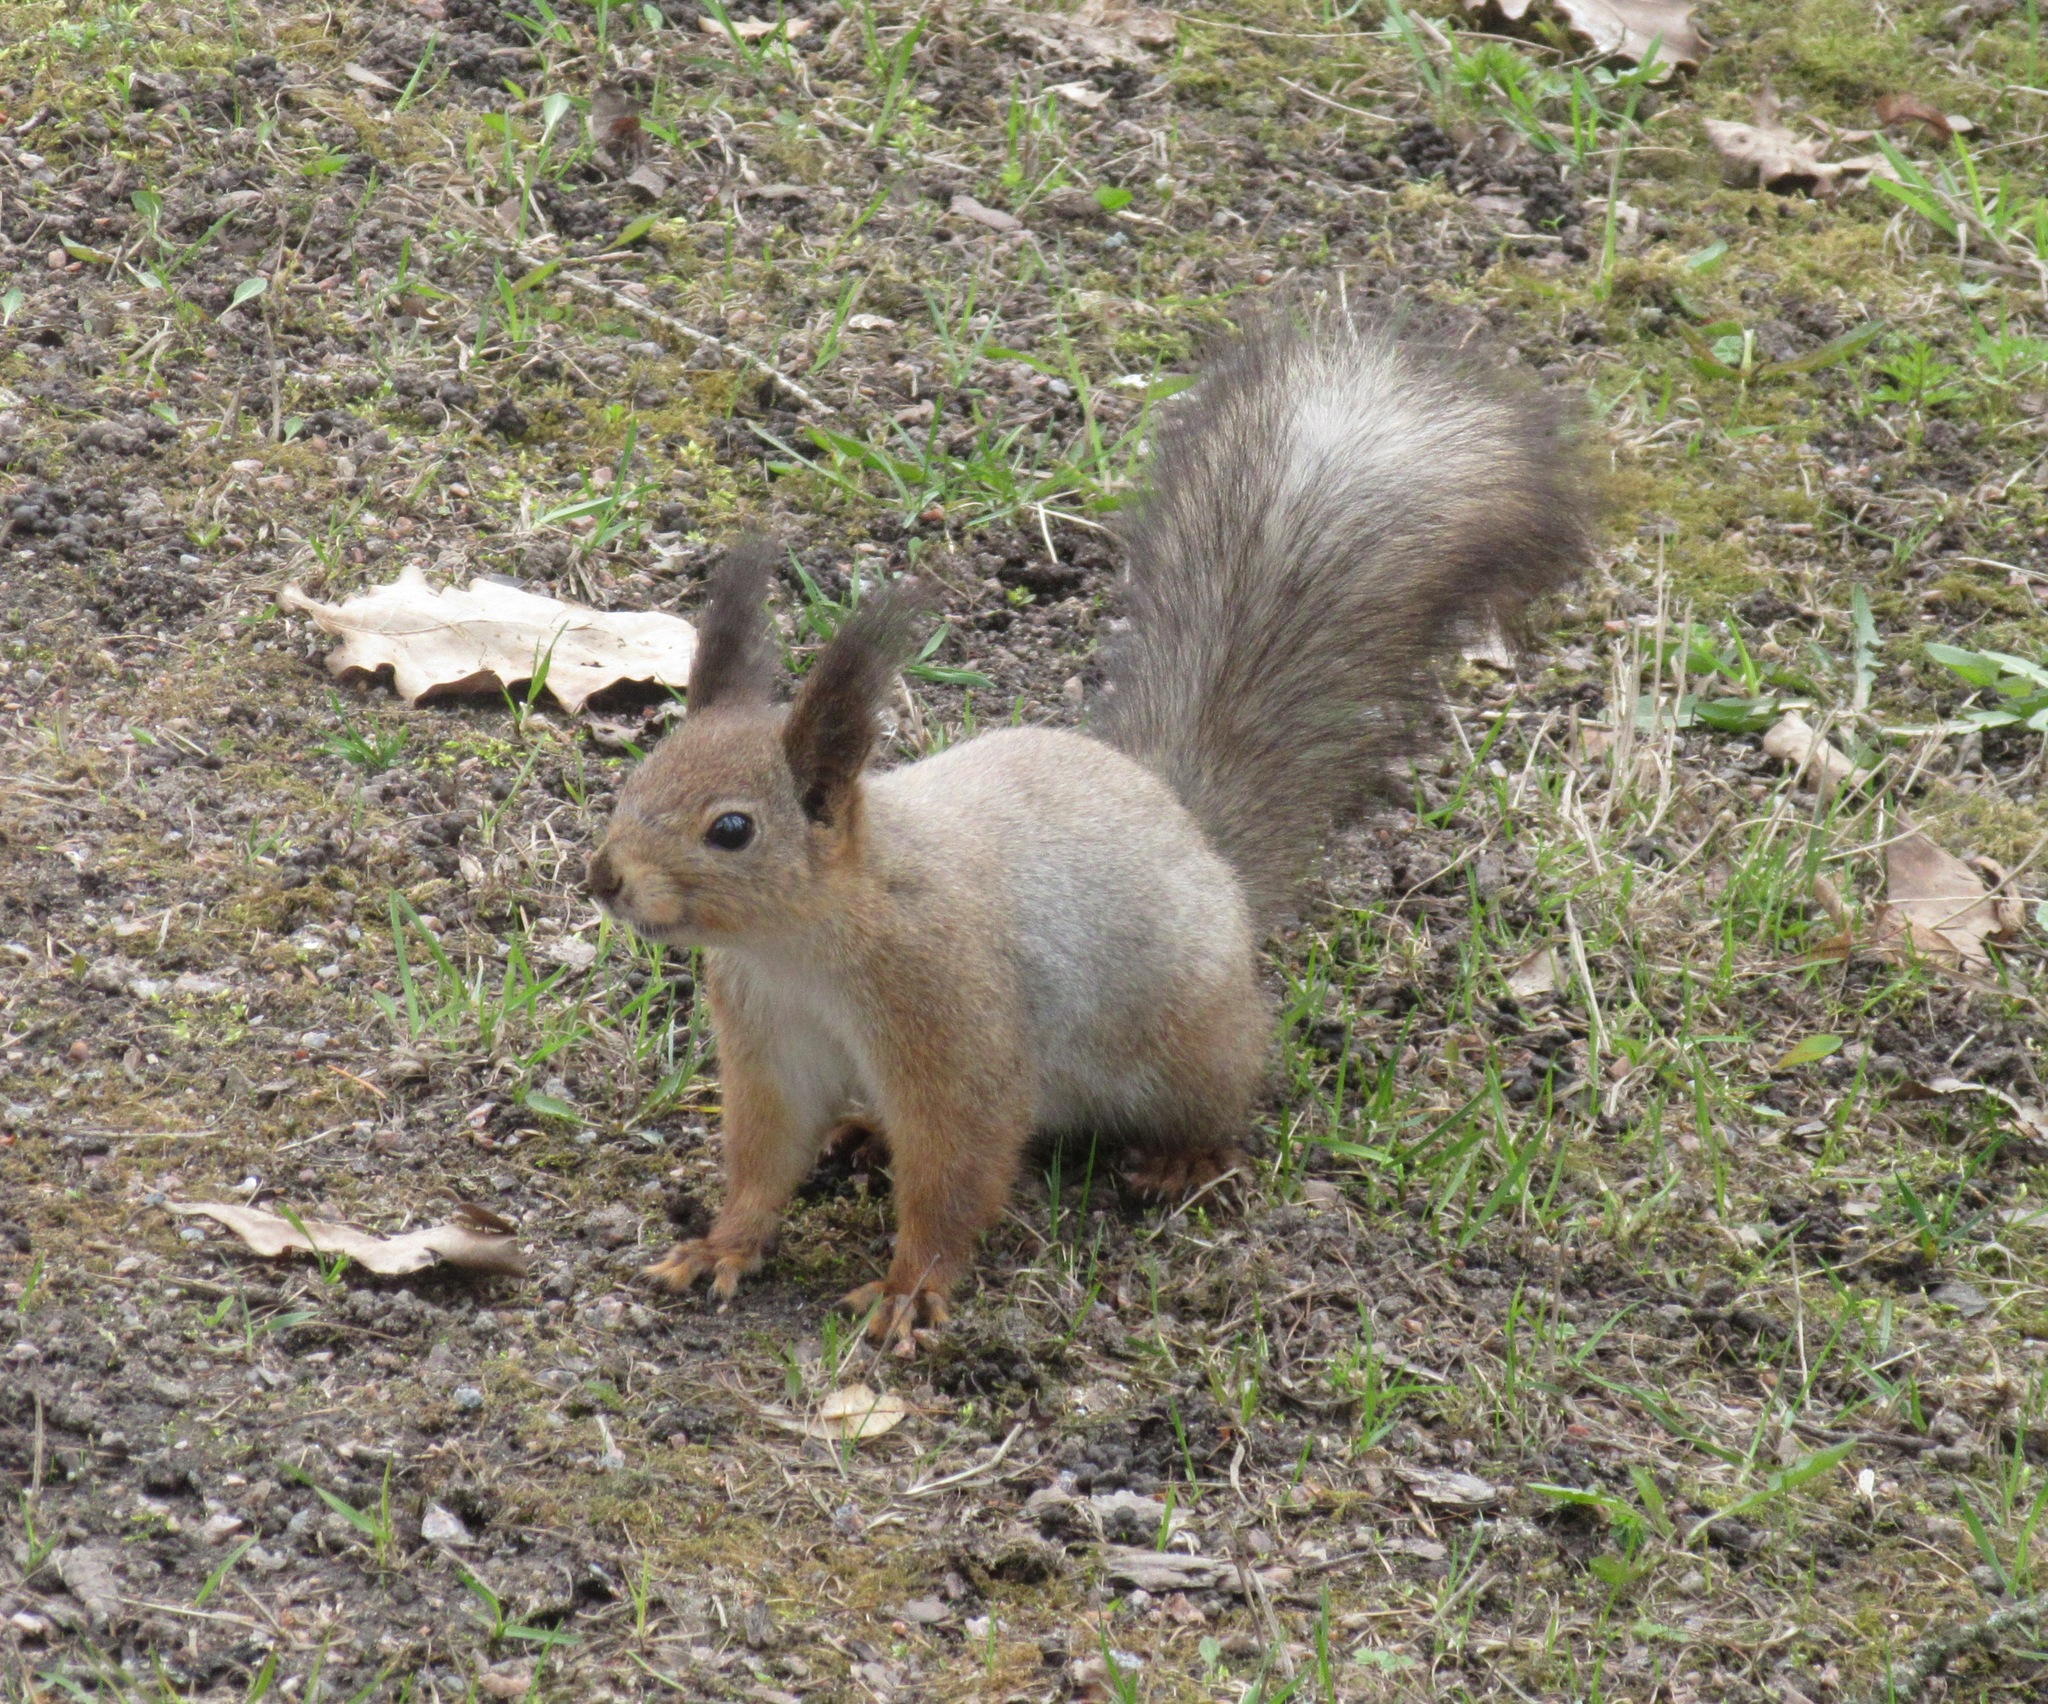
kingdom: Animalia
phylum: Chordata
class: Mammalia
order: Rodentia
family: Sciuridae
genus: Sciurus
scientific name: Sciurus vulgaris
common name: Eurasian red squirrel
